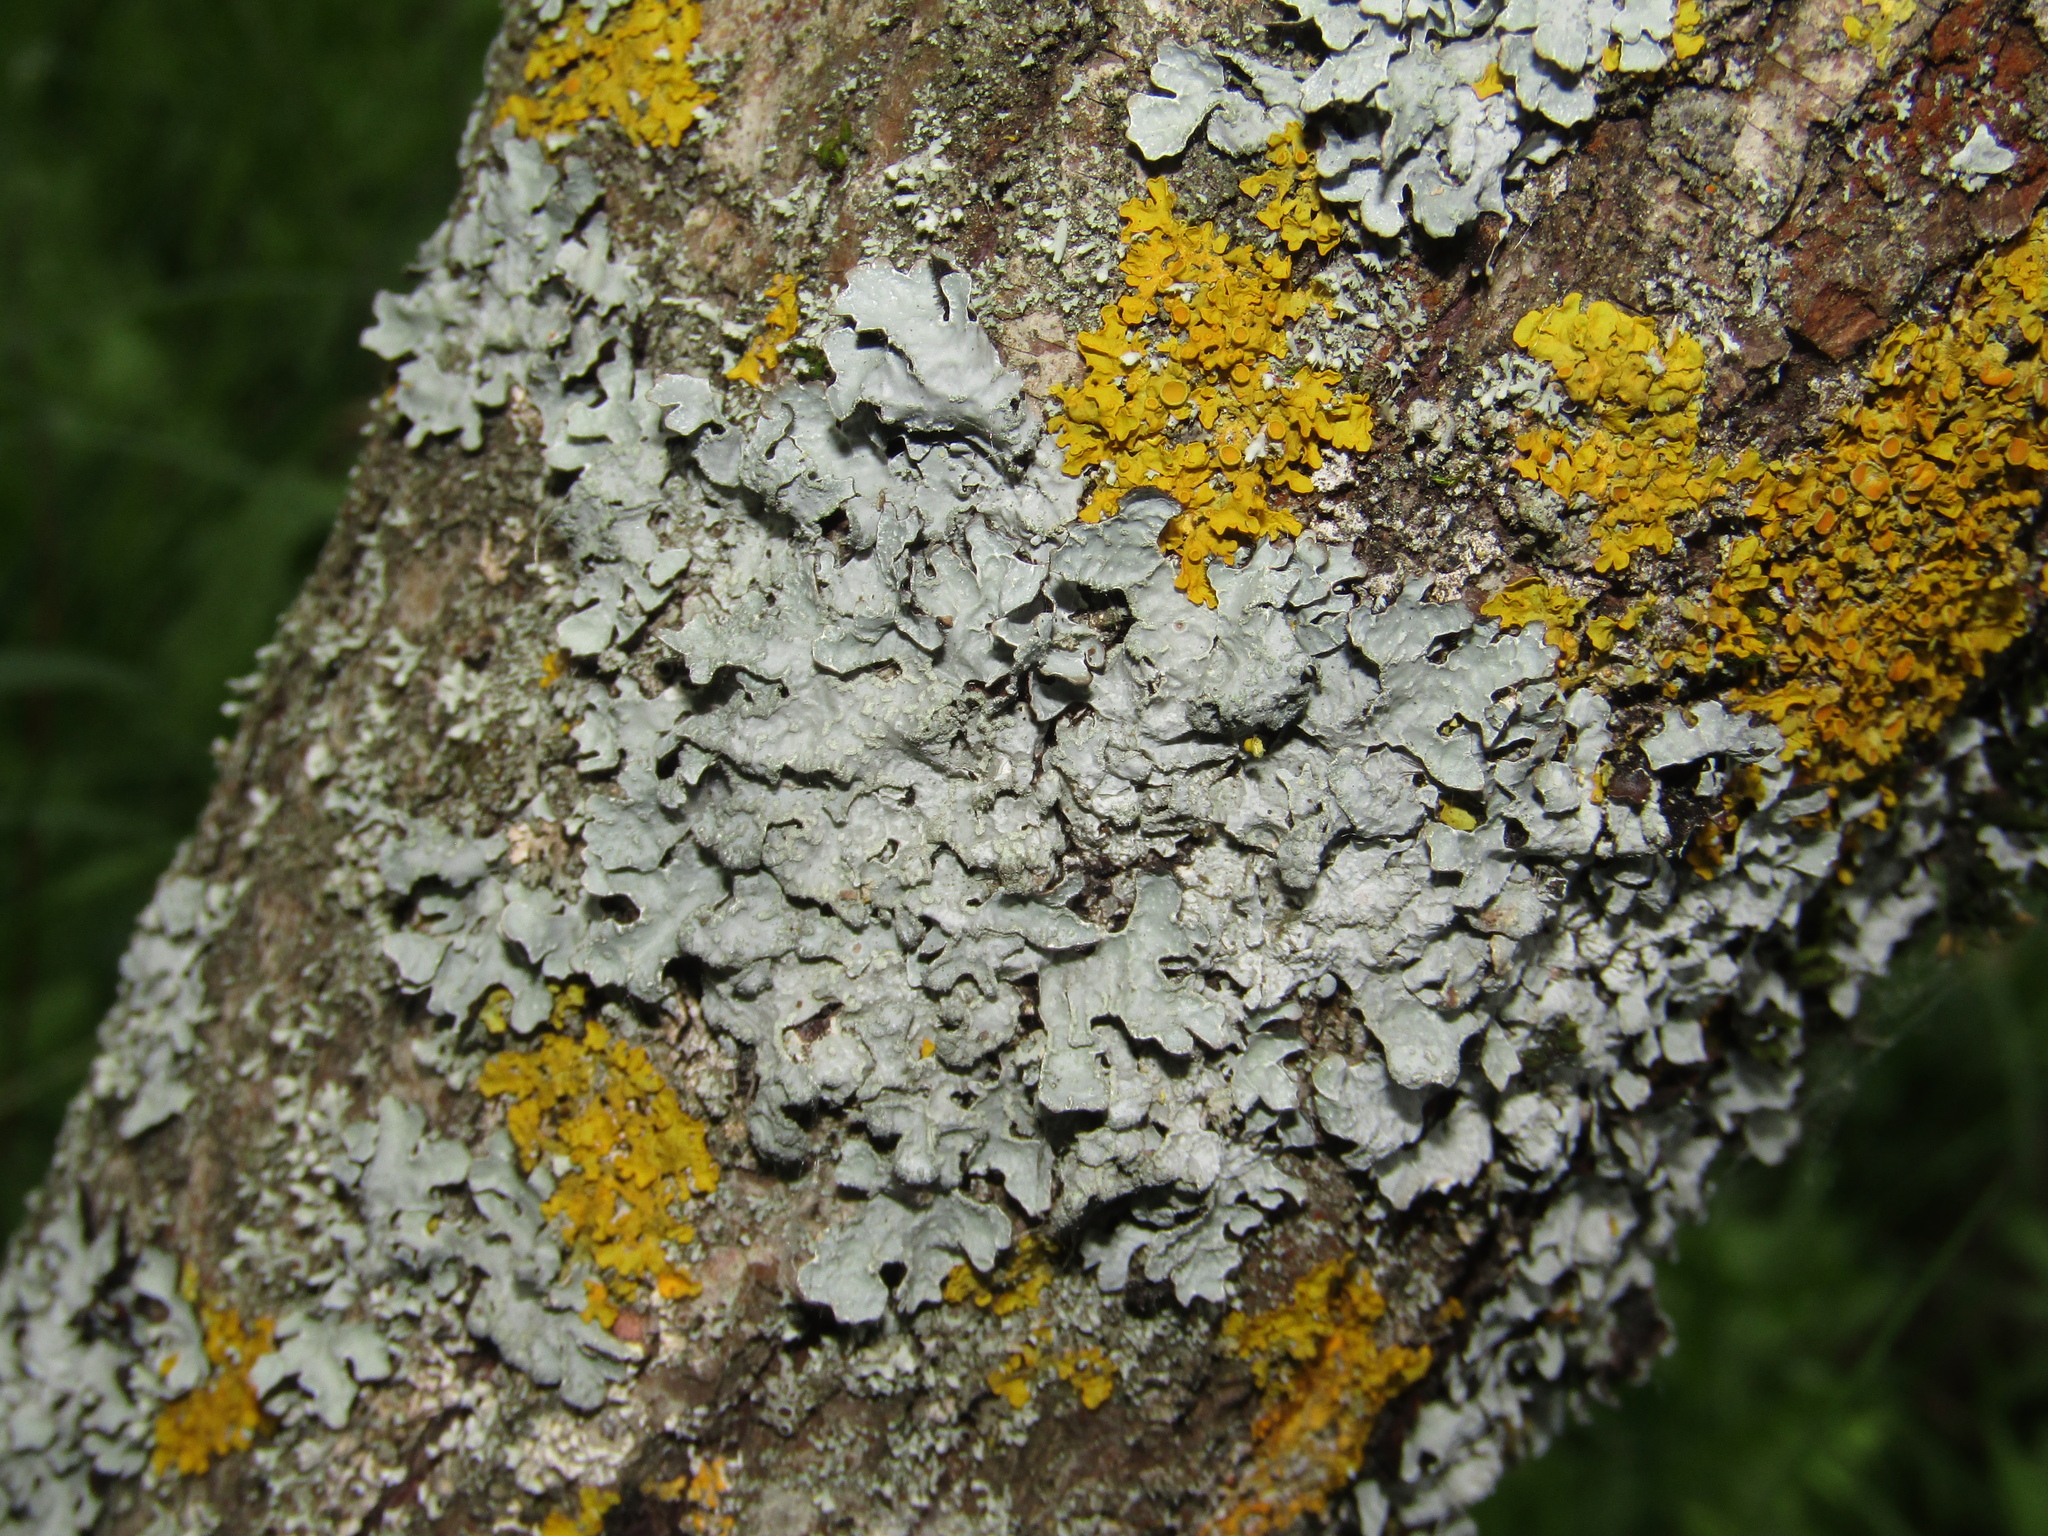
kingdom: Fungi
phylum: Ascomycota
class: Lecanoromycetes
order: Lecanorales
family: Parmeliaceae
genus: Parmelia
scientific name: Parmelia sulcata
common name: Netted shield lichen
